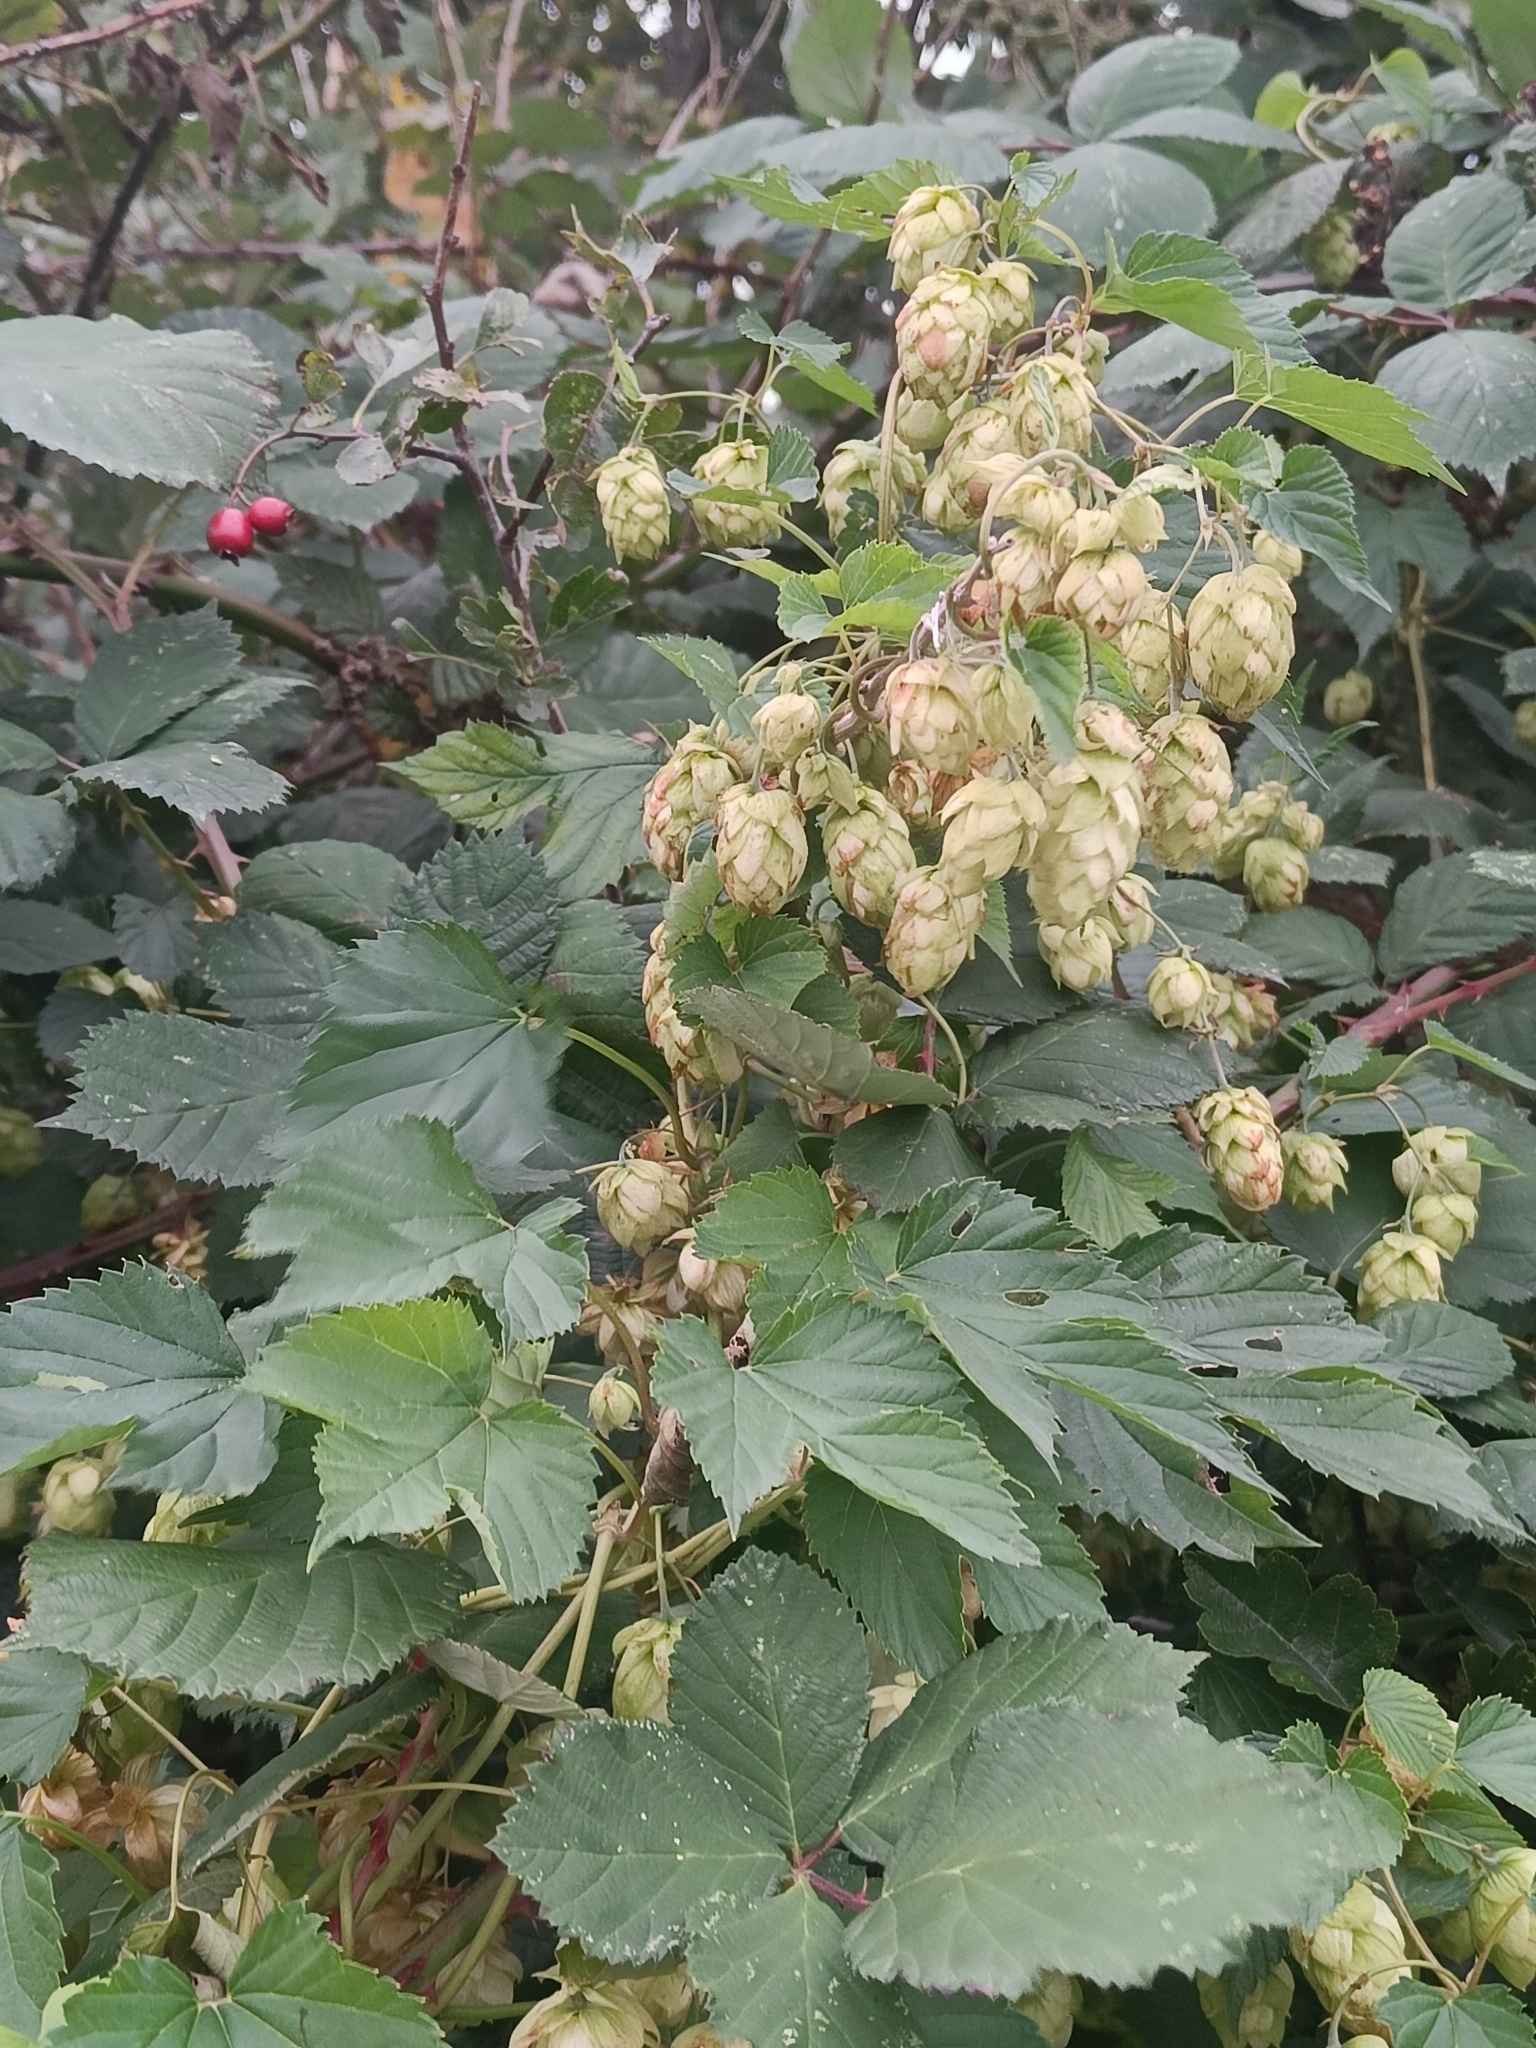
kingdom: Plantae
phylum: Tracheophyta
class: Magnoliopsida
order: Rosales
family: Cannabaceae
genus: Humulus
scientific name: Humulus lupulus
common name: Hop
